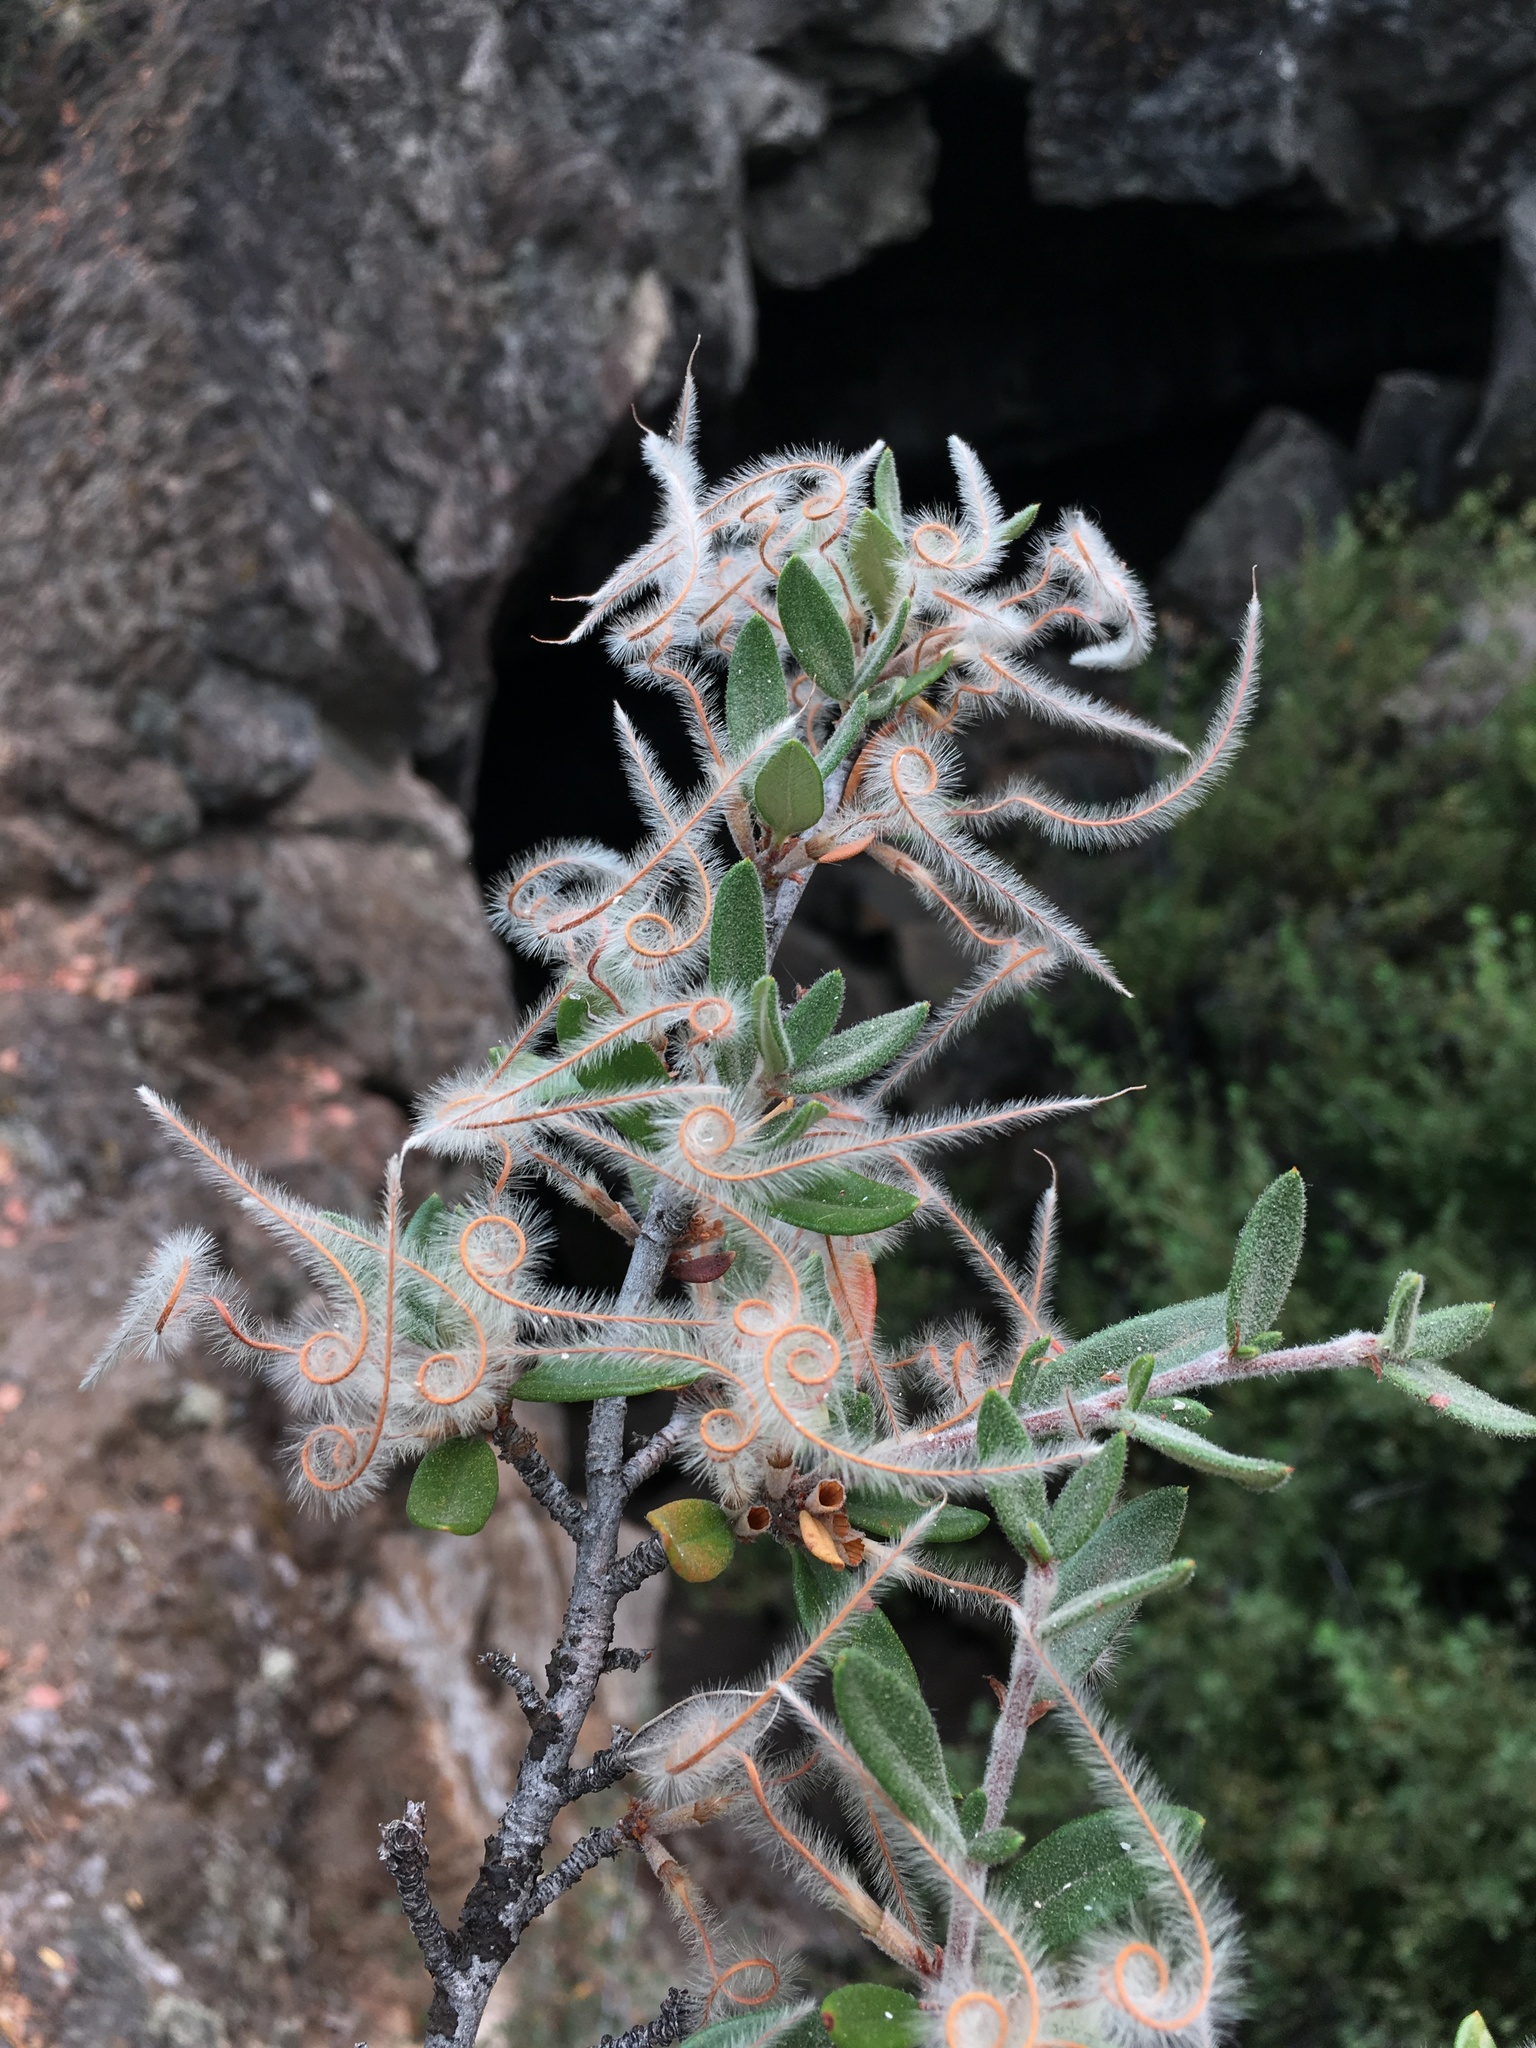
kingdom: Plantae
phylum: Tracheophyta
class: Magnoliopsida
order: Rosales
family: Rosaceae
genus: Cercocarpus
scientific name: Cercocarpus ledifolius
